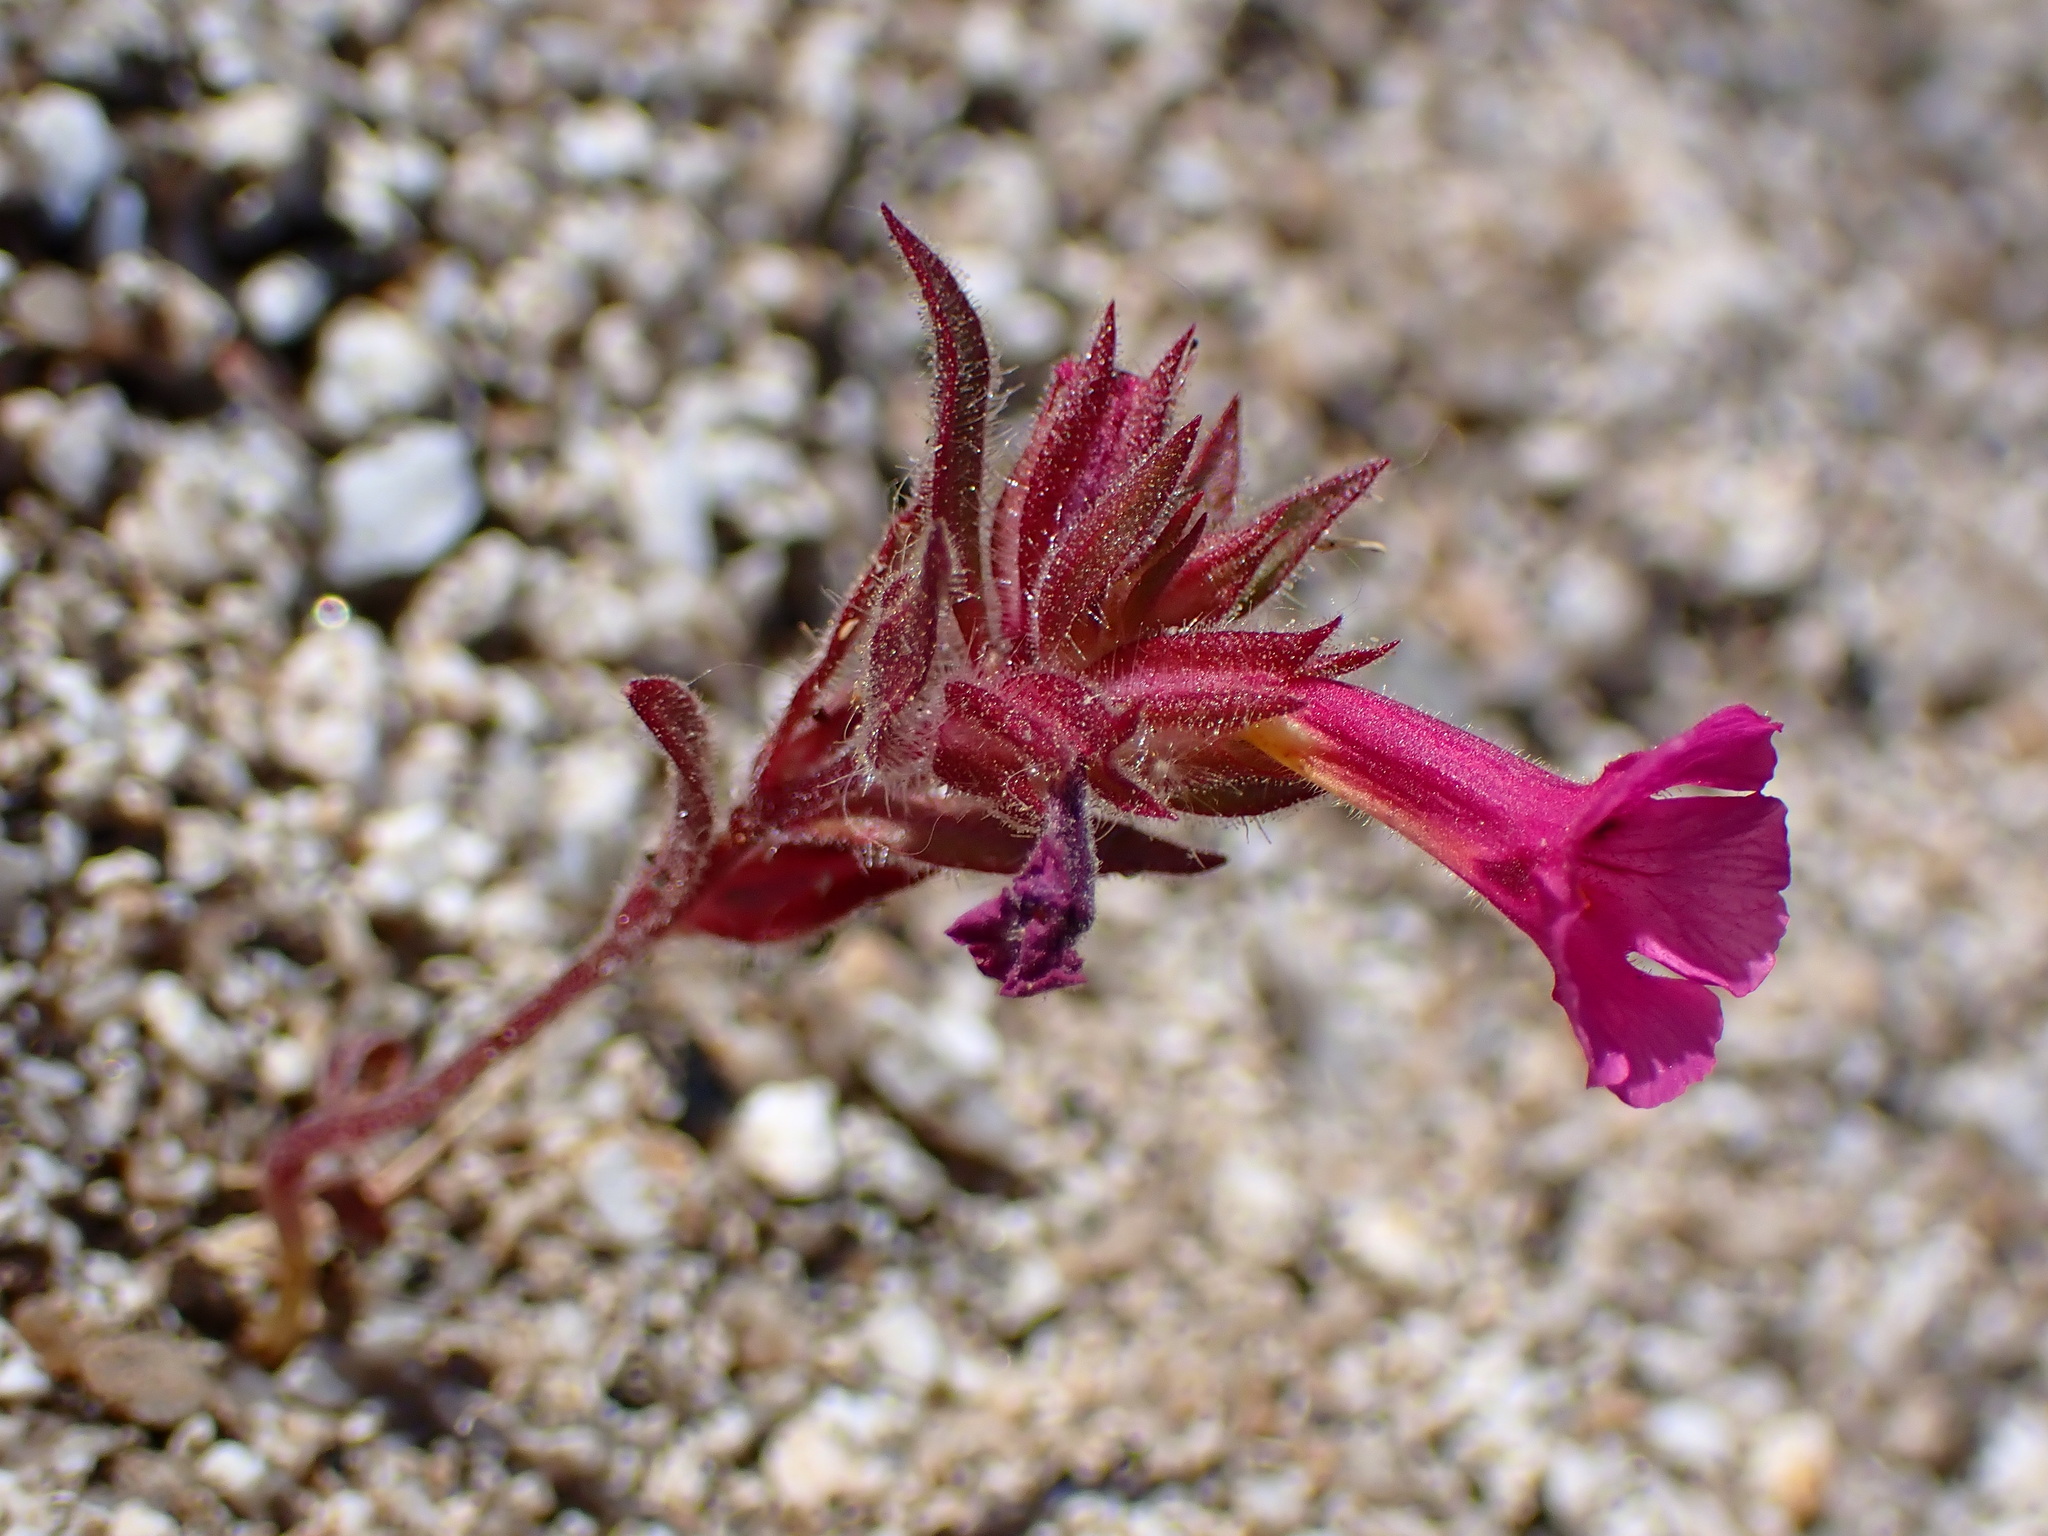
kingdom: Plantae
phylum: Tracheophyta
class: Magnoliopsida
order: Lamiales
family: Phrymaceae
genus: Diplacus
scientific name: Diplacus bigelovii
